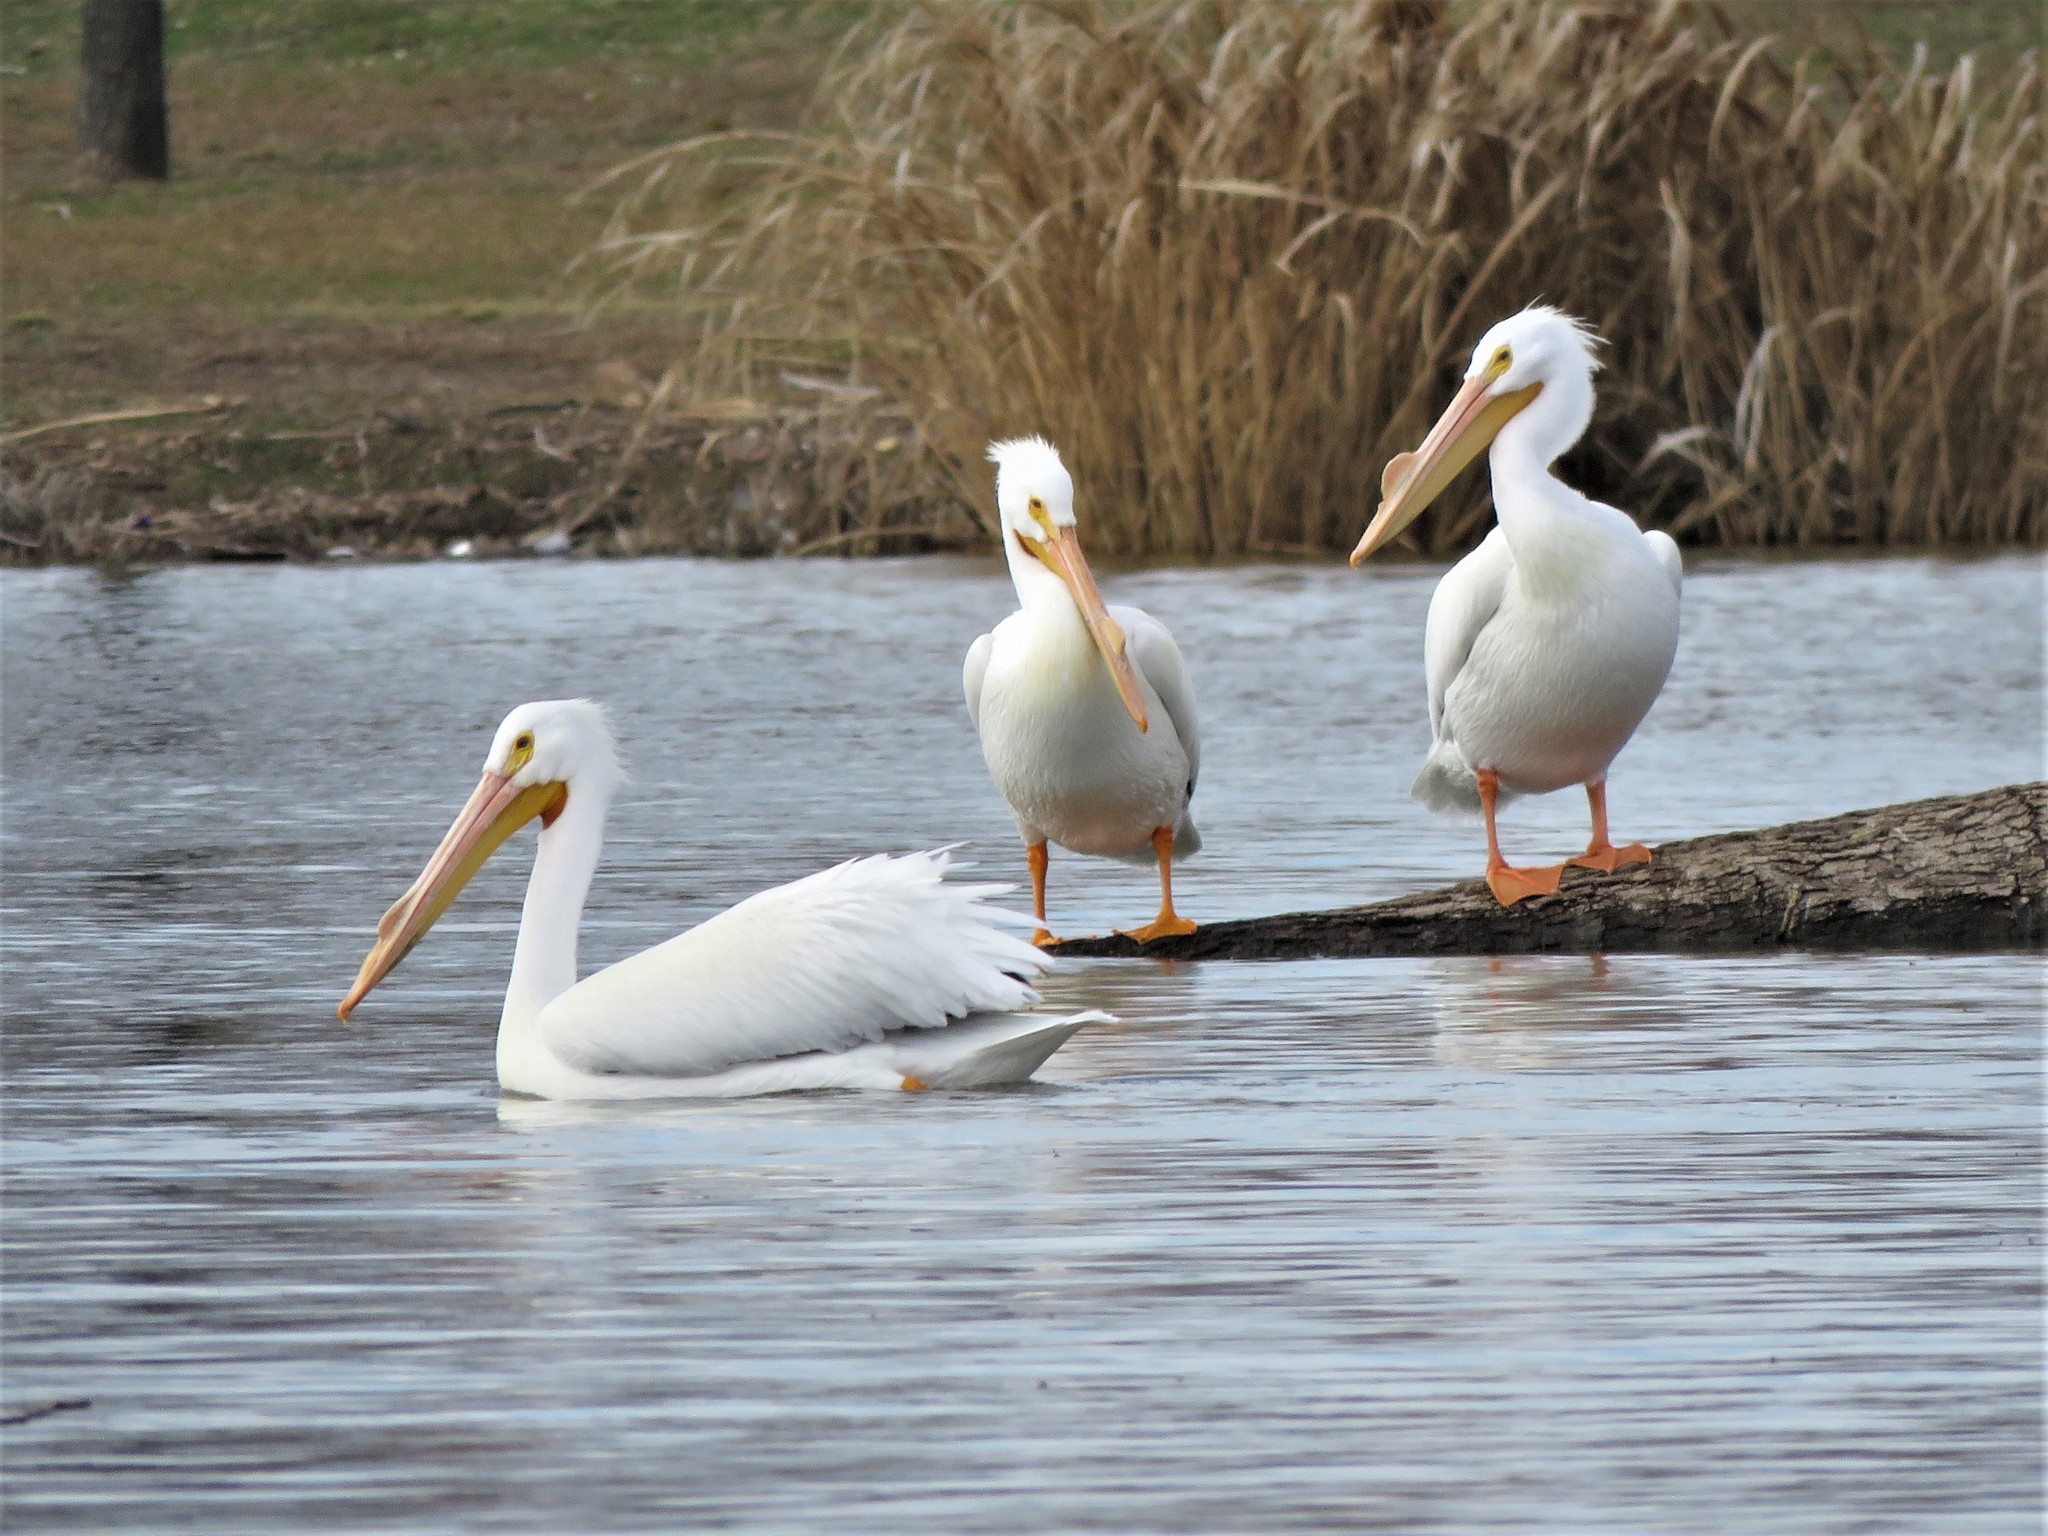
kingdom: Animalia
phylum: Chordata
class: Aves
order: Pelecaniformes
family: Pelecanidae
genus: Pelecanus
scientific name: Pelecanus erythrorhynchos
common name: American white pelican
